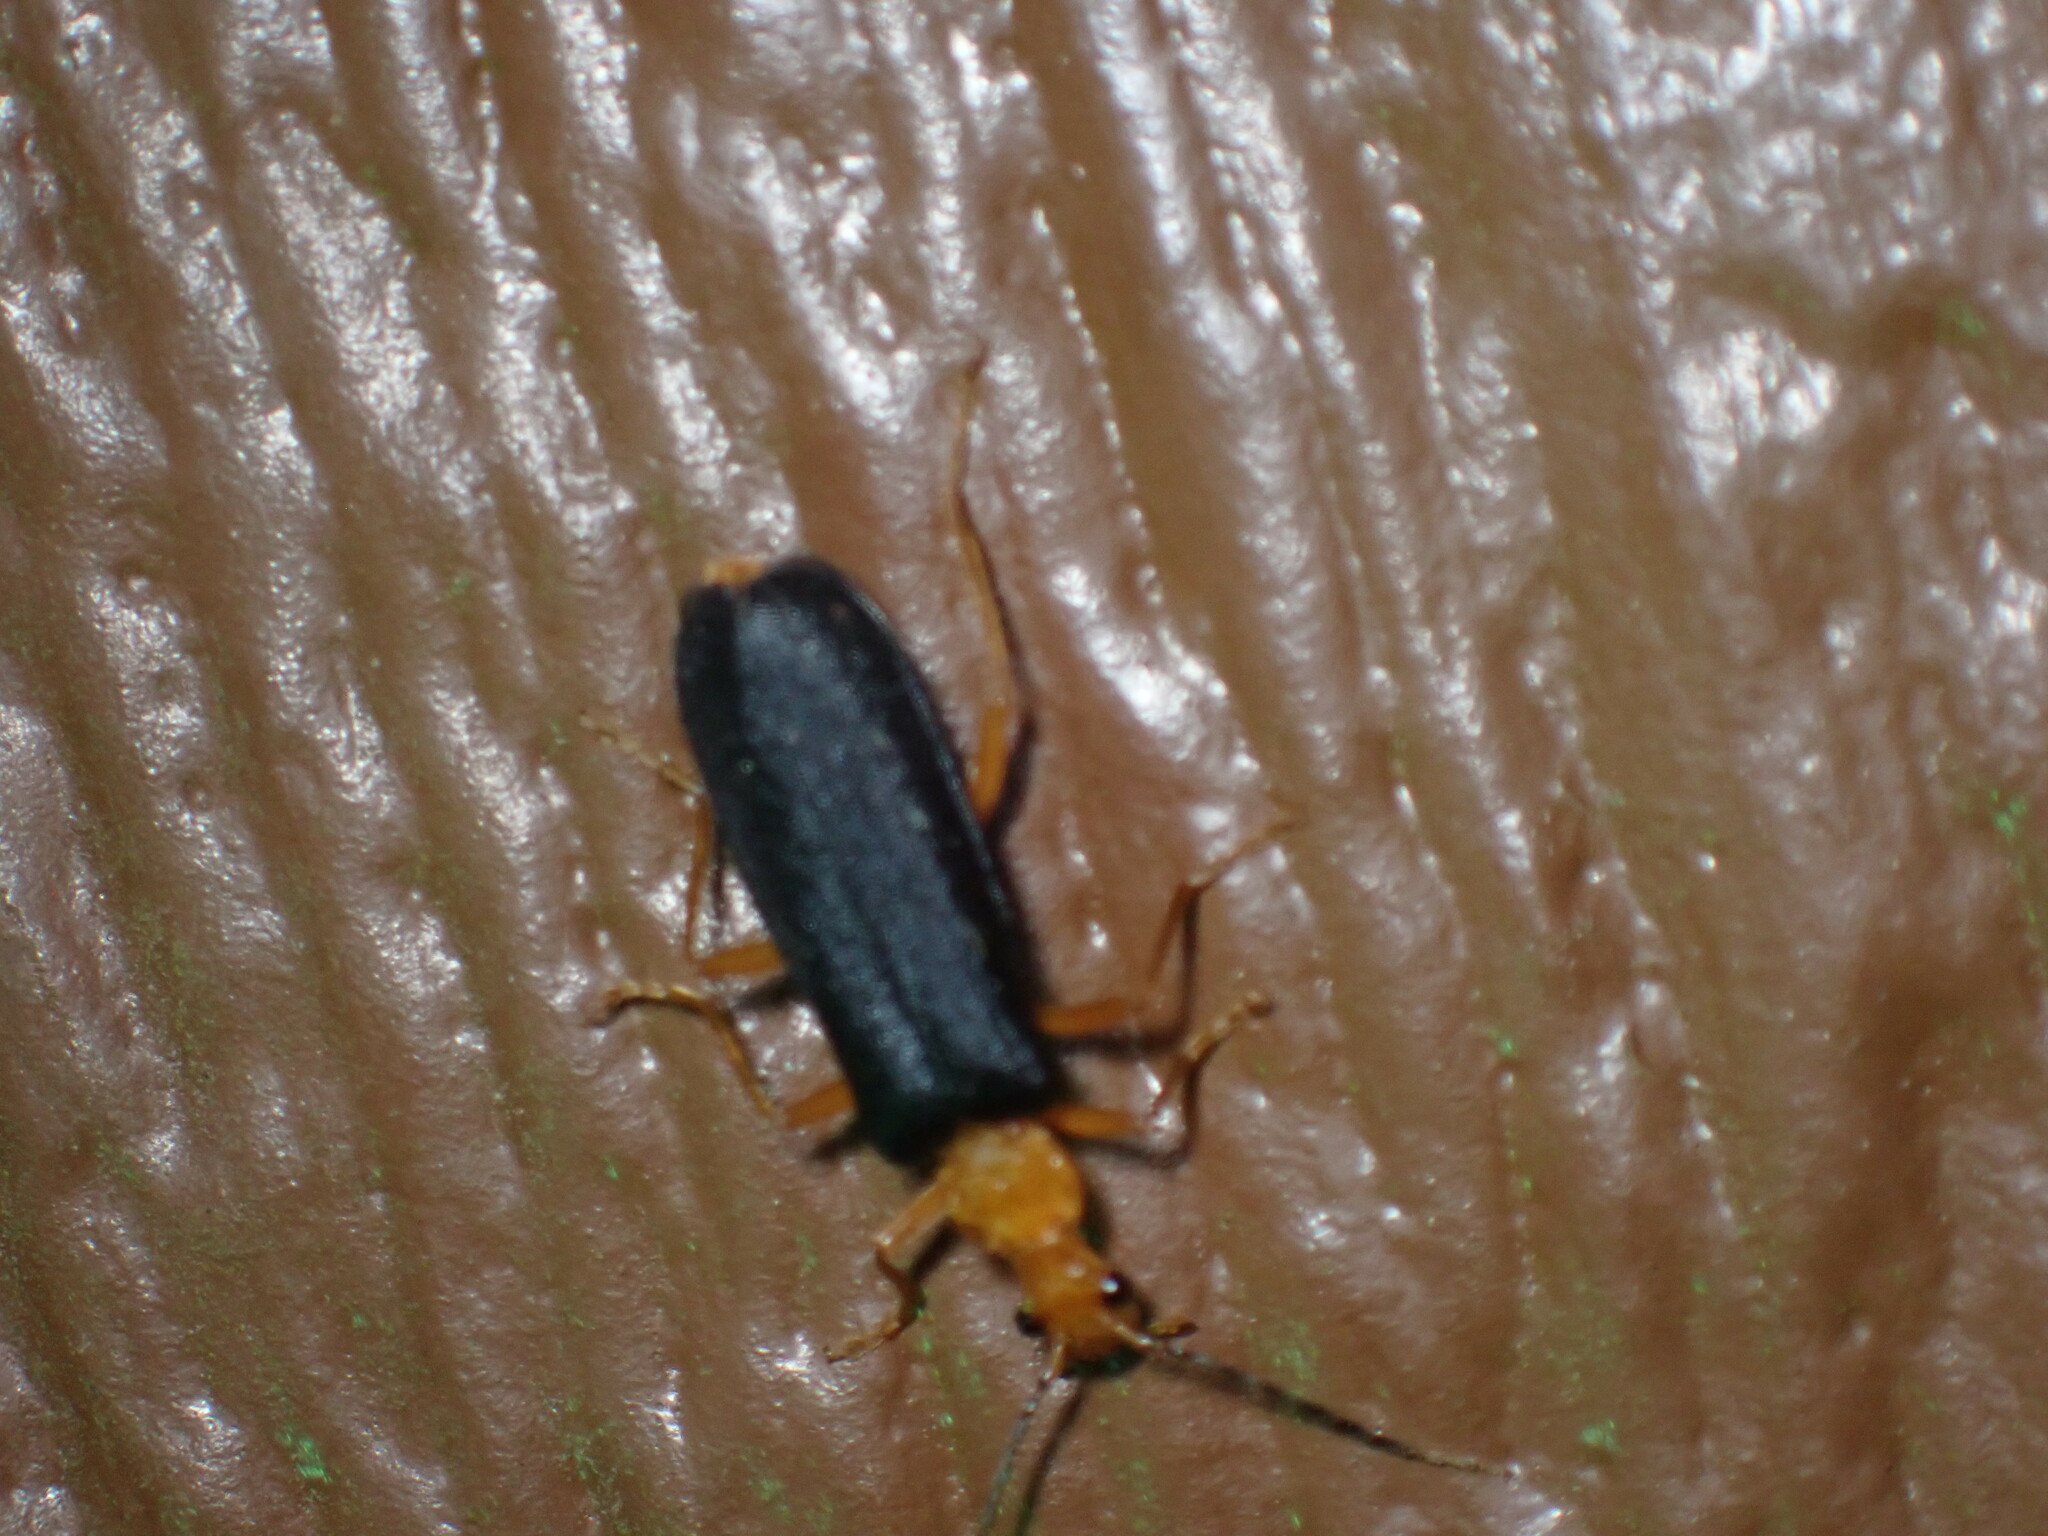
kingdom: Animalia
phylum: Arthropoda
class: Insecta
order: Coleoptera
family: Cantharidae
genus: Podabrus
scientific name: Podabrus fayi
